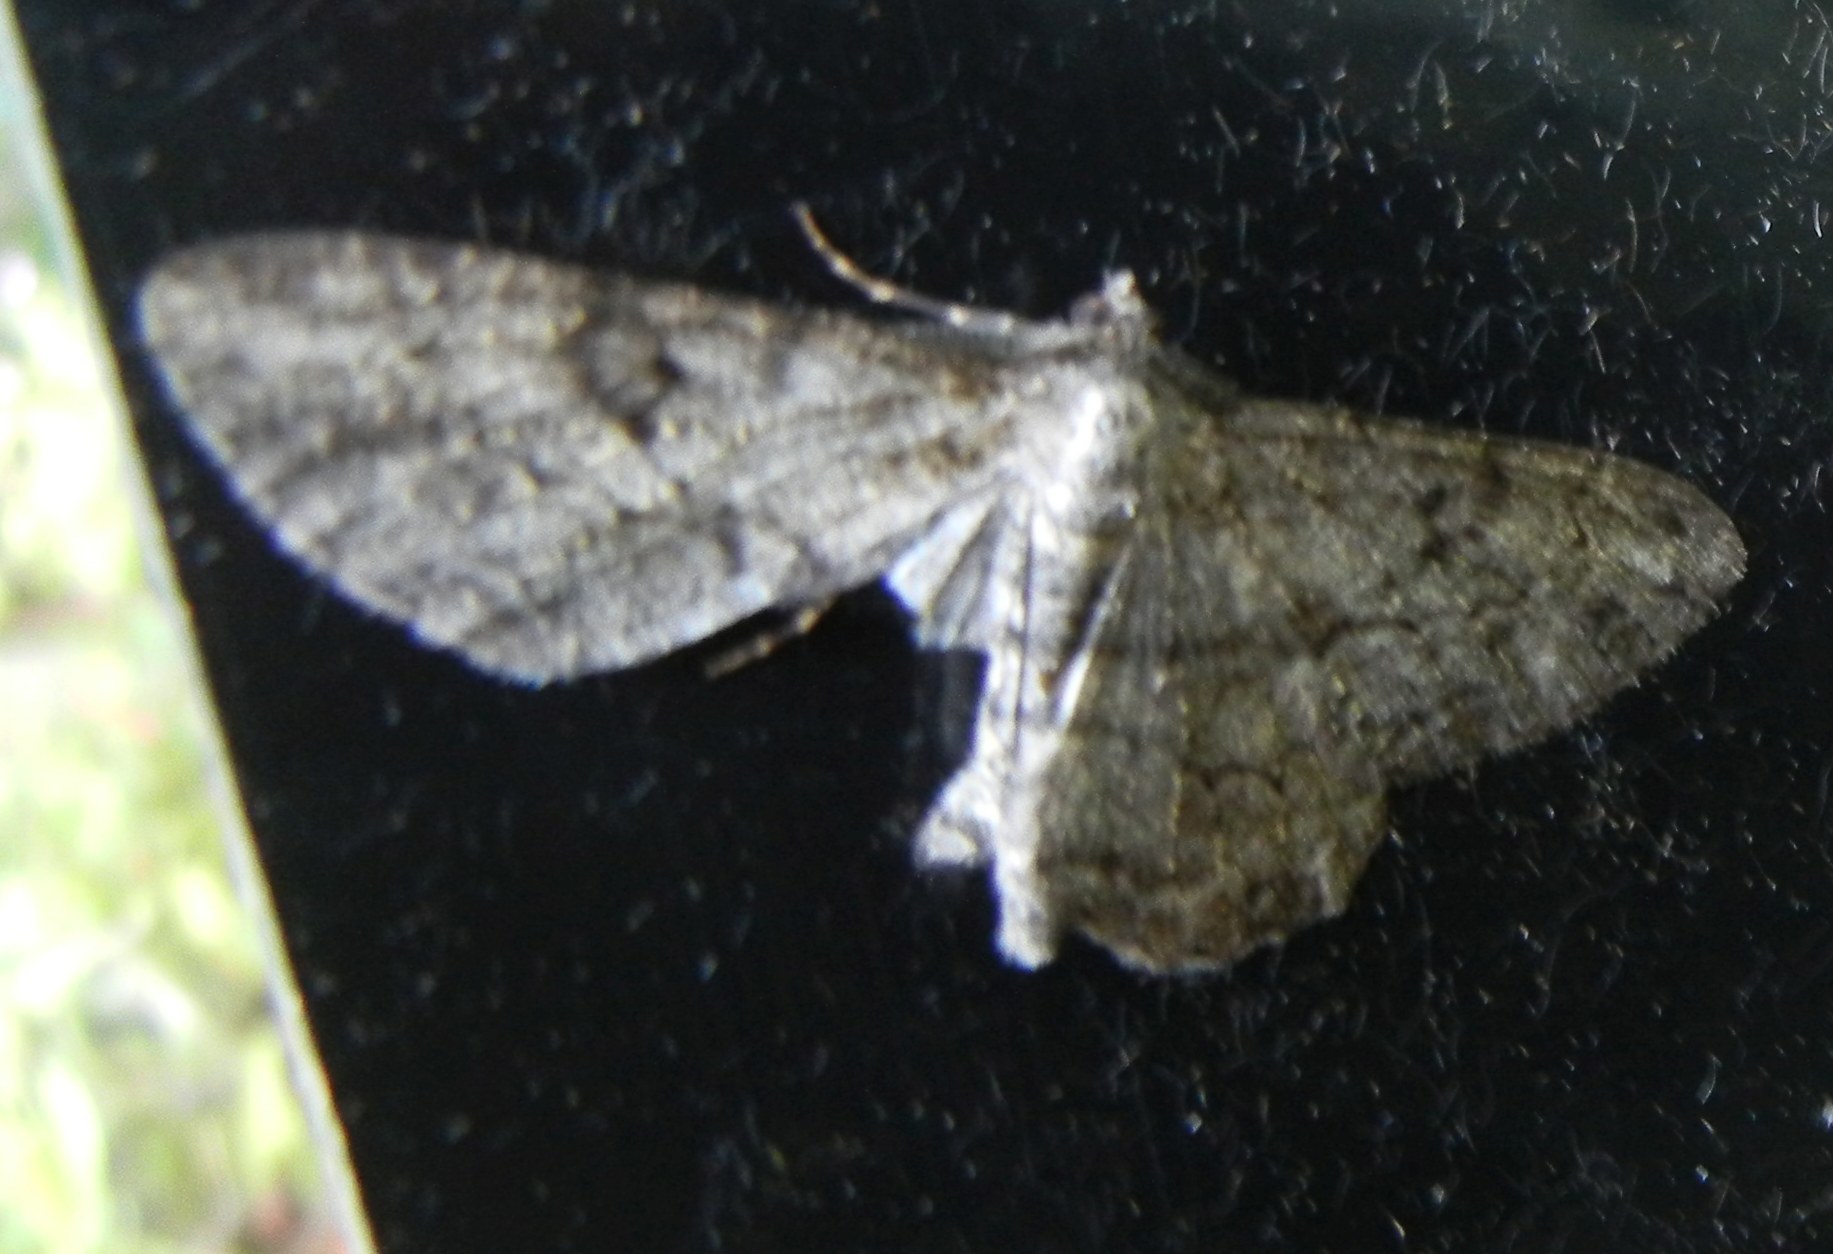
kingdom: Animalia
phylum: Arthropoda
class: Insecta
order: Lepidoptera
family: Geometridae
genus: Peribatodes
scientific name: Peribatodes rhomboidaria
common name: Willow beauty
